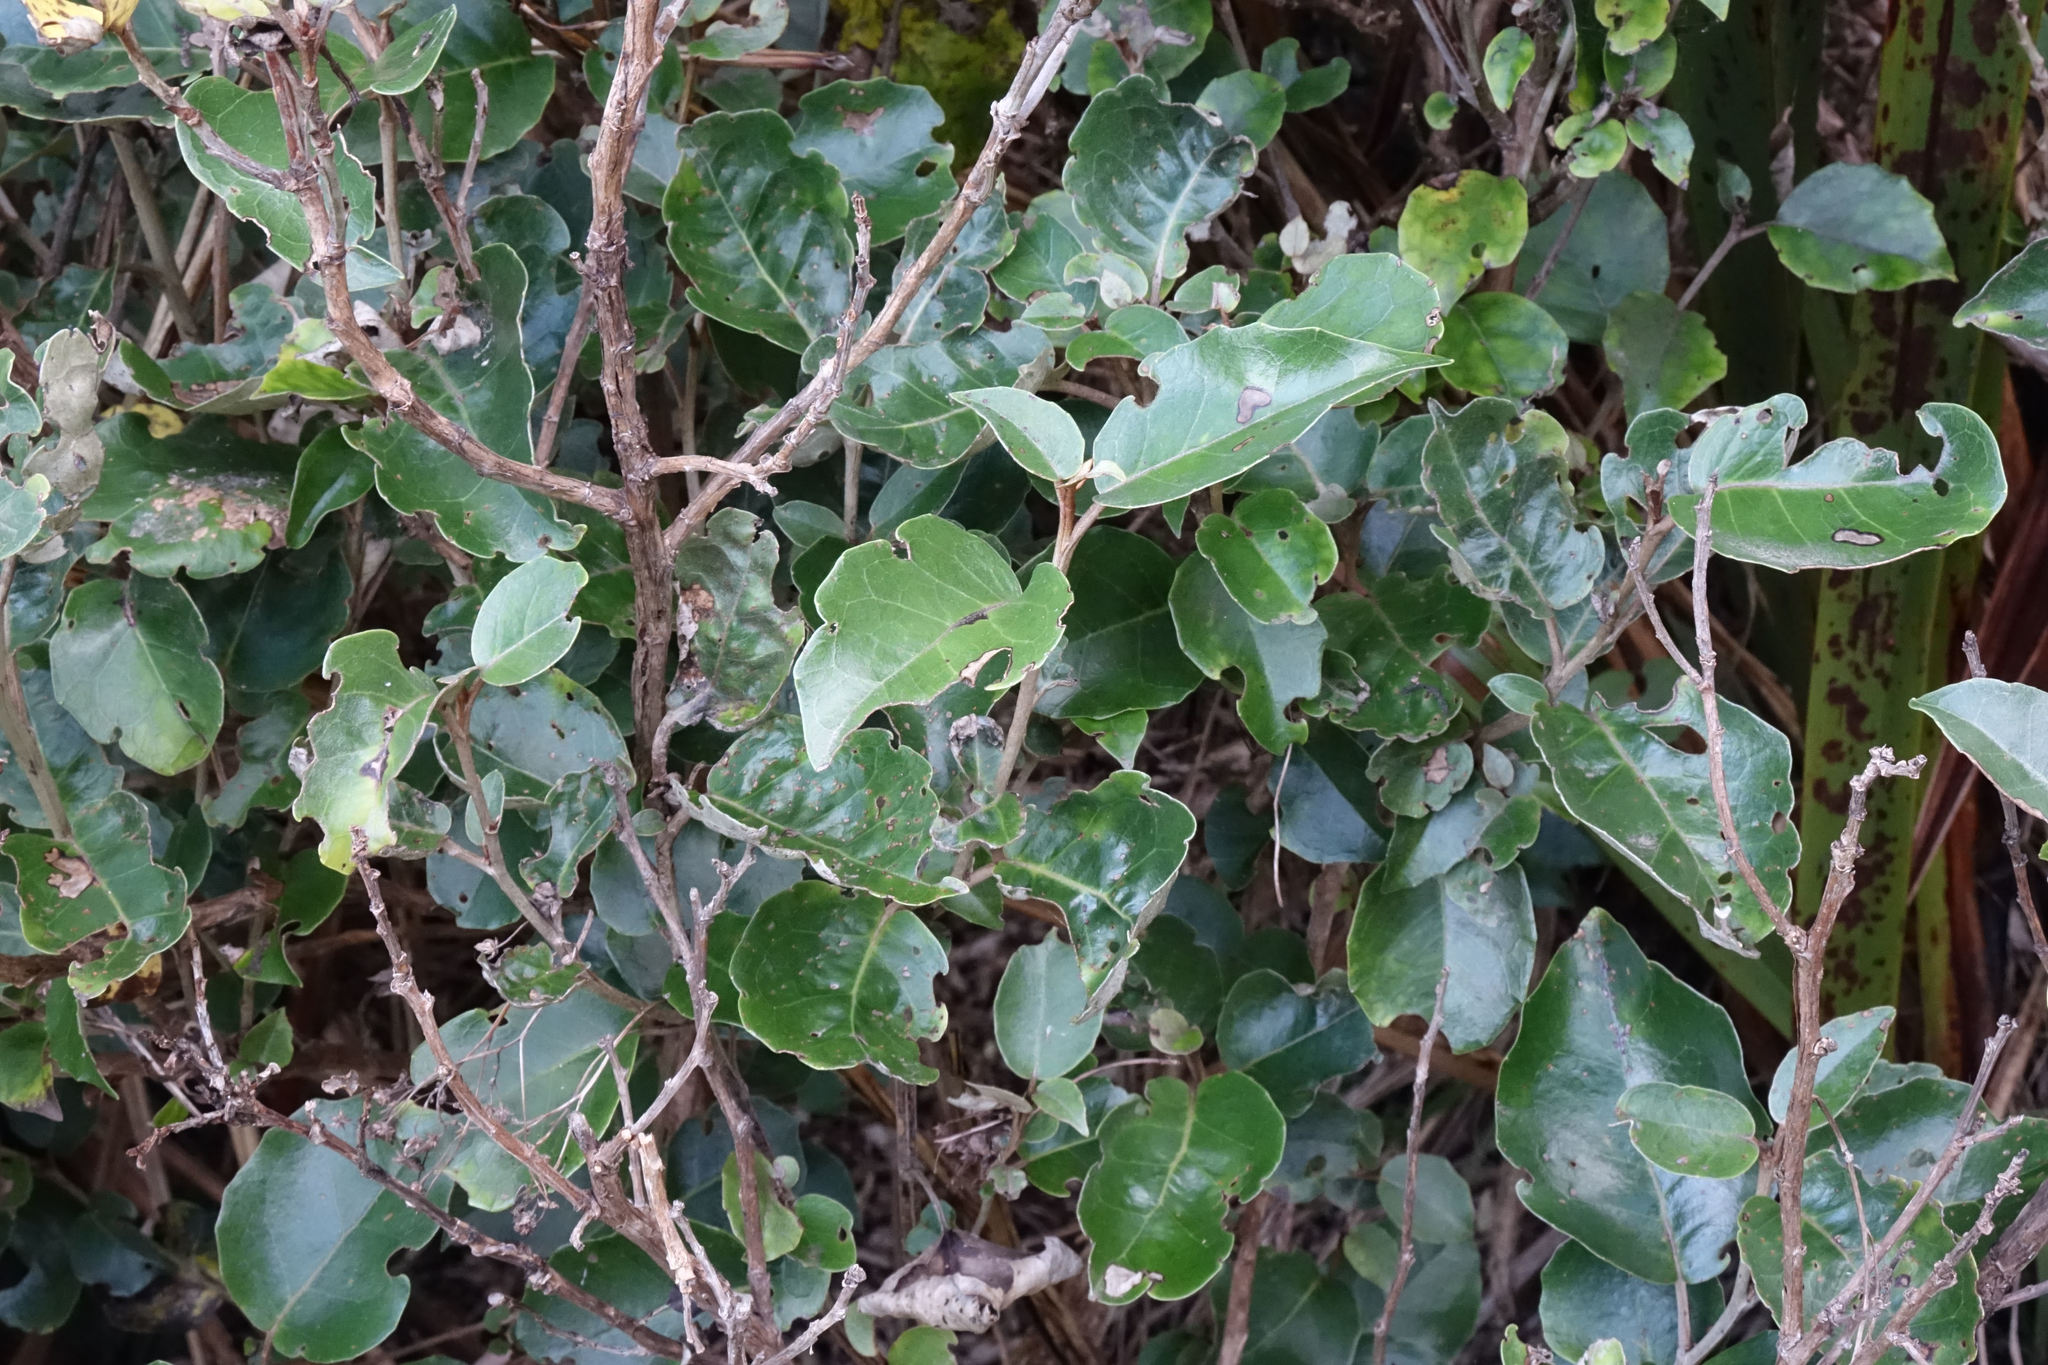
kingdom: Plantae
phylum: Tracheophyta
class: Magnoliopsida
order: Asterales
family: Asteraceae
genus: Olearia
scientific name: Olearia arborescens
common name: Glossy tree daisy
